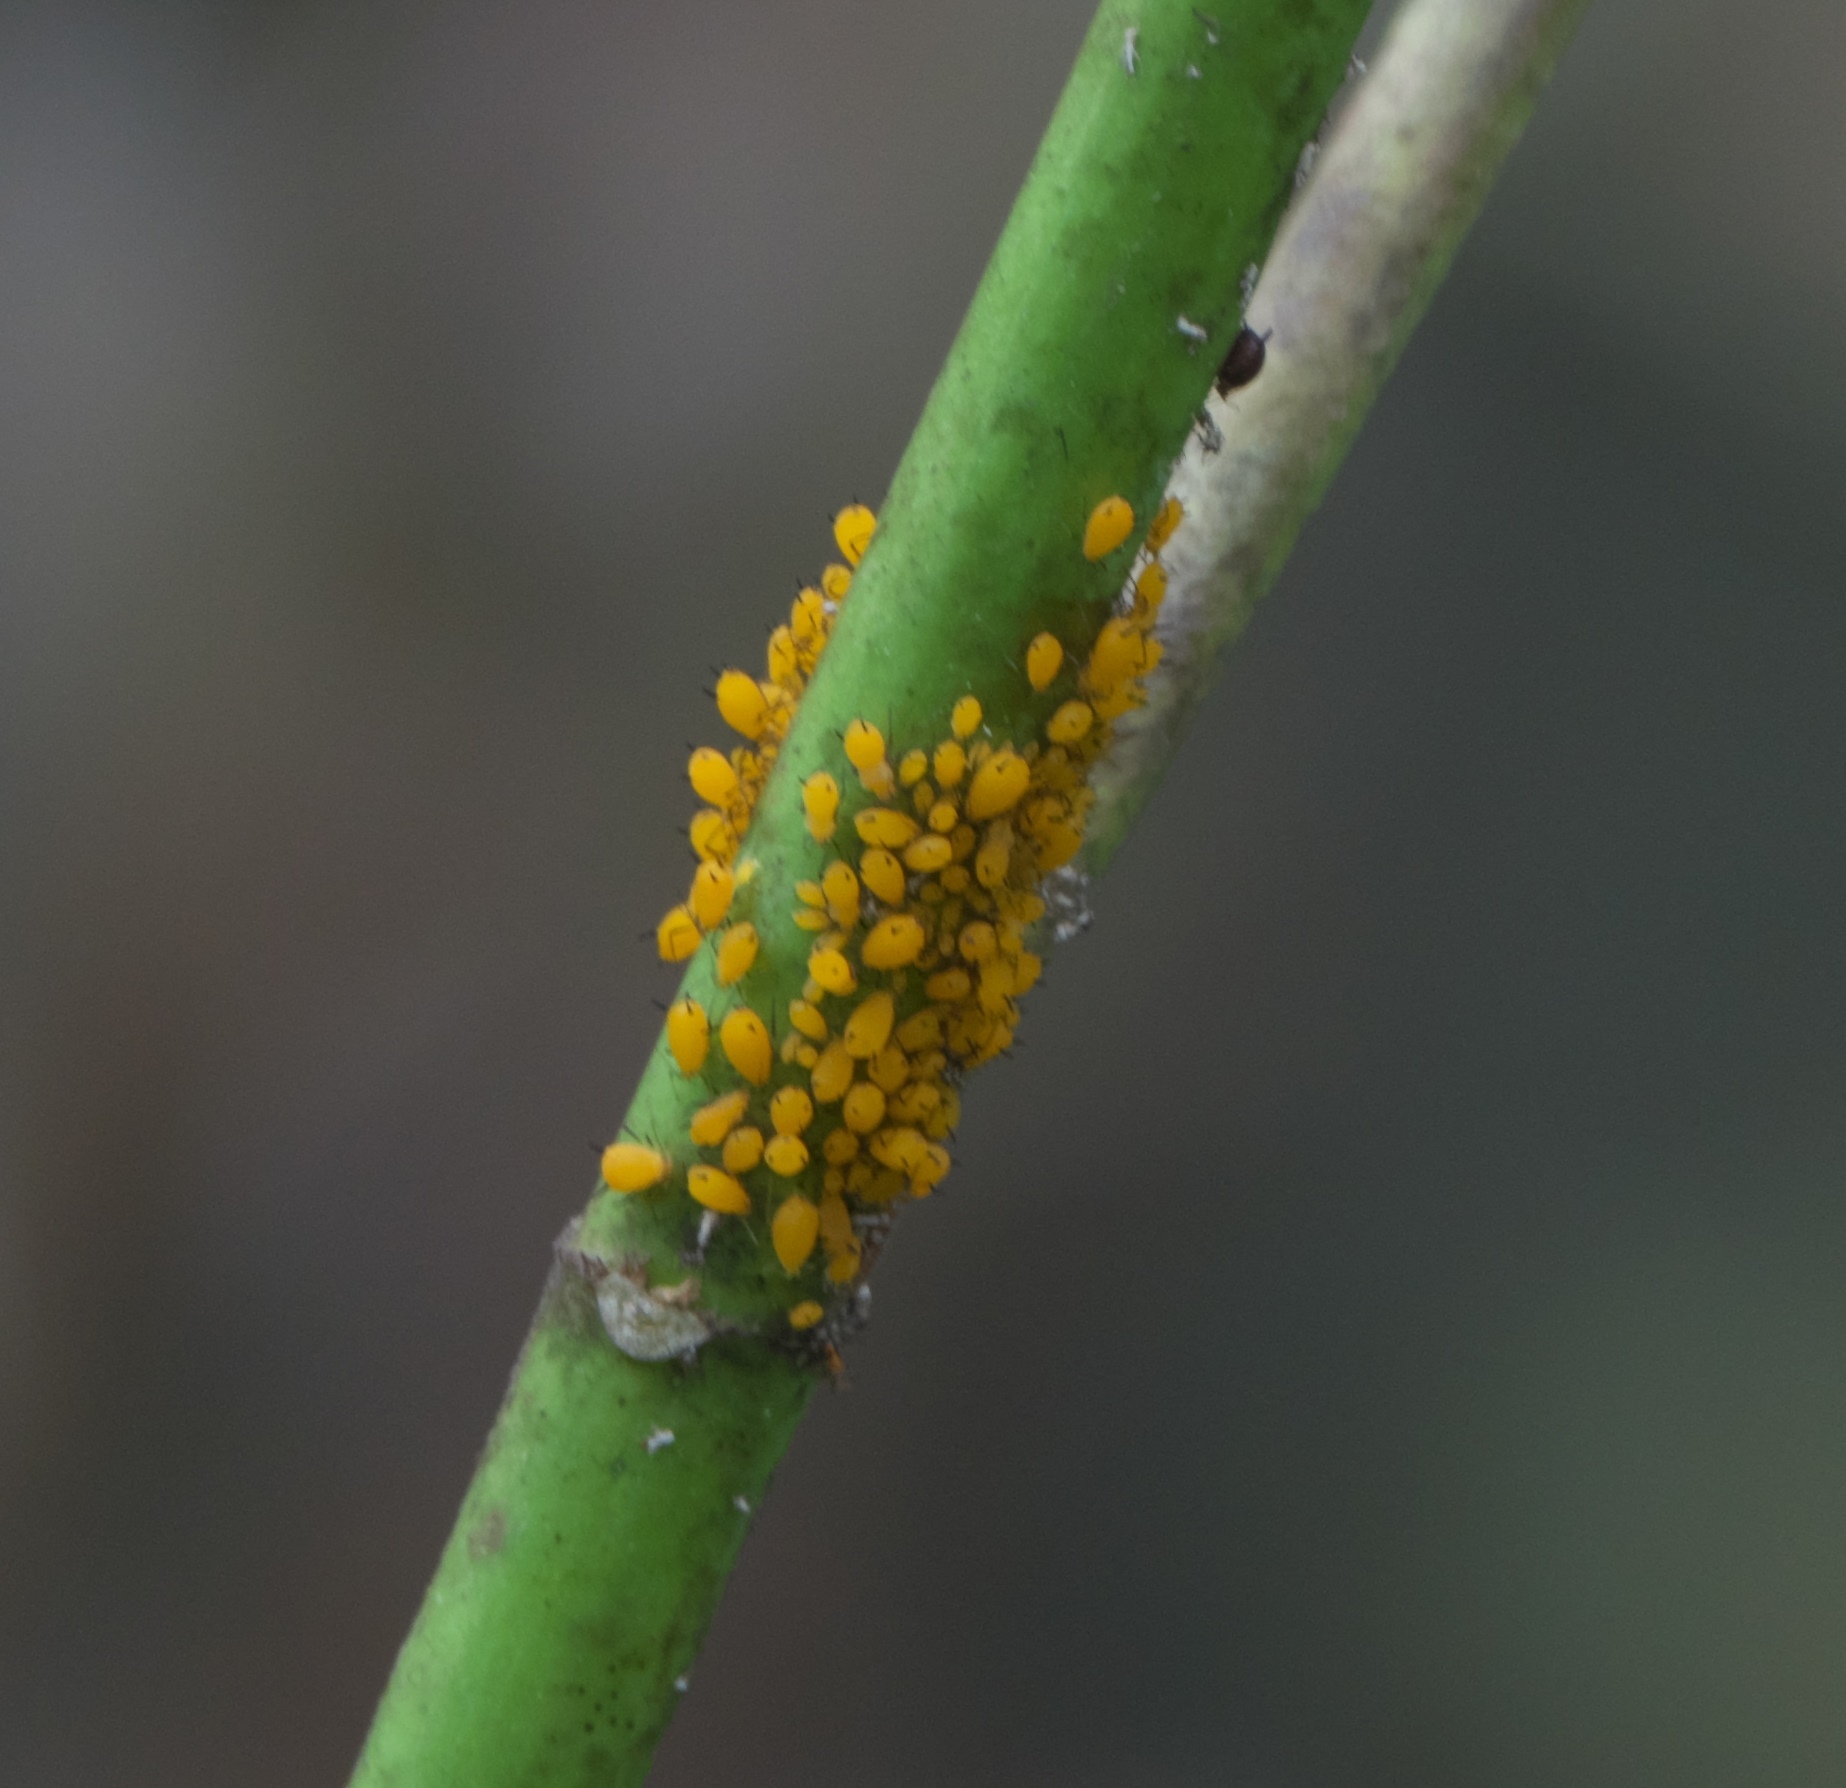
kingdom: Animalia
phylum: Arthropoda
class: Insecta
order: Hemiptera
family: Aphididae
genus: Aphis
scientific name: Aphis nerii
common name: Oleander aphid
